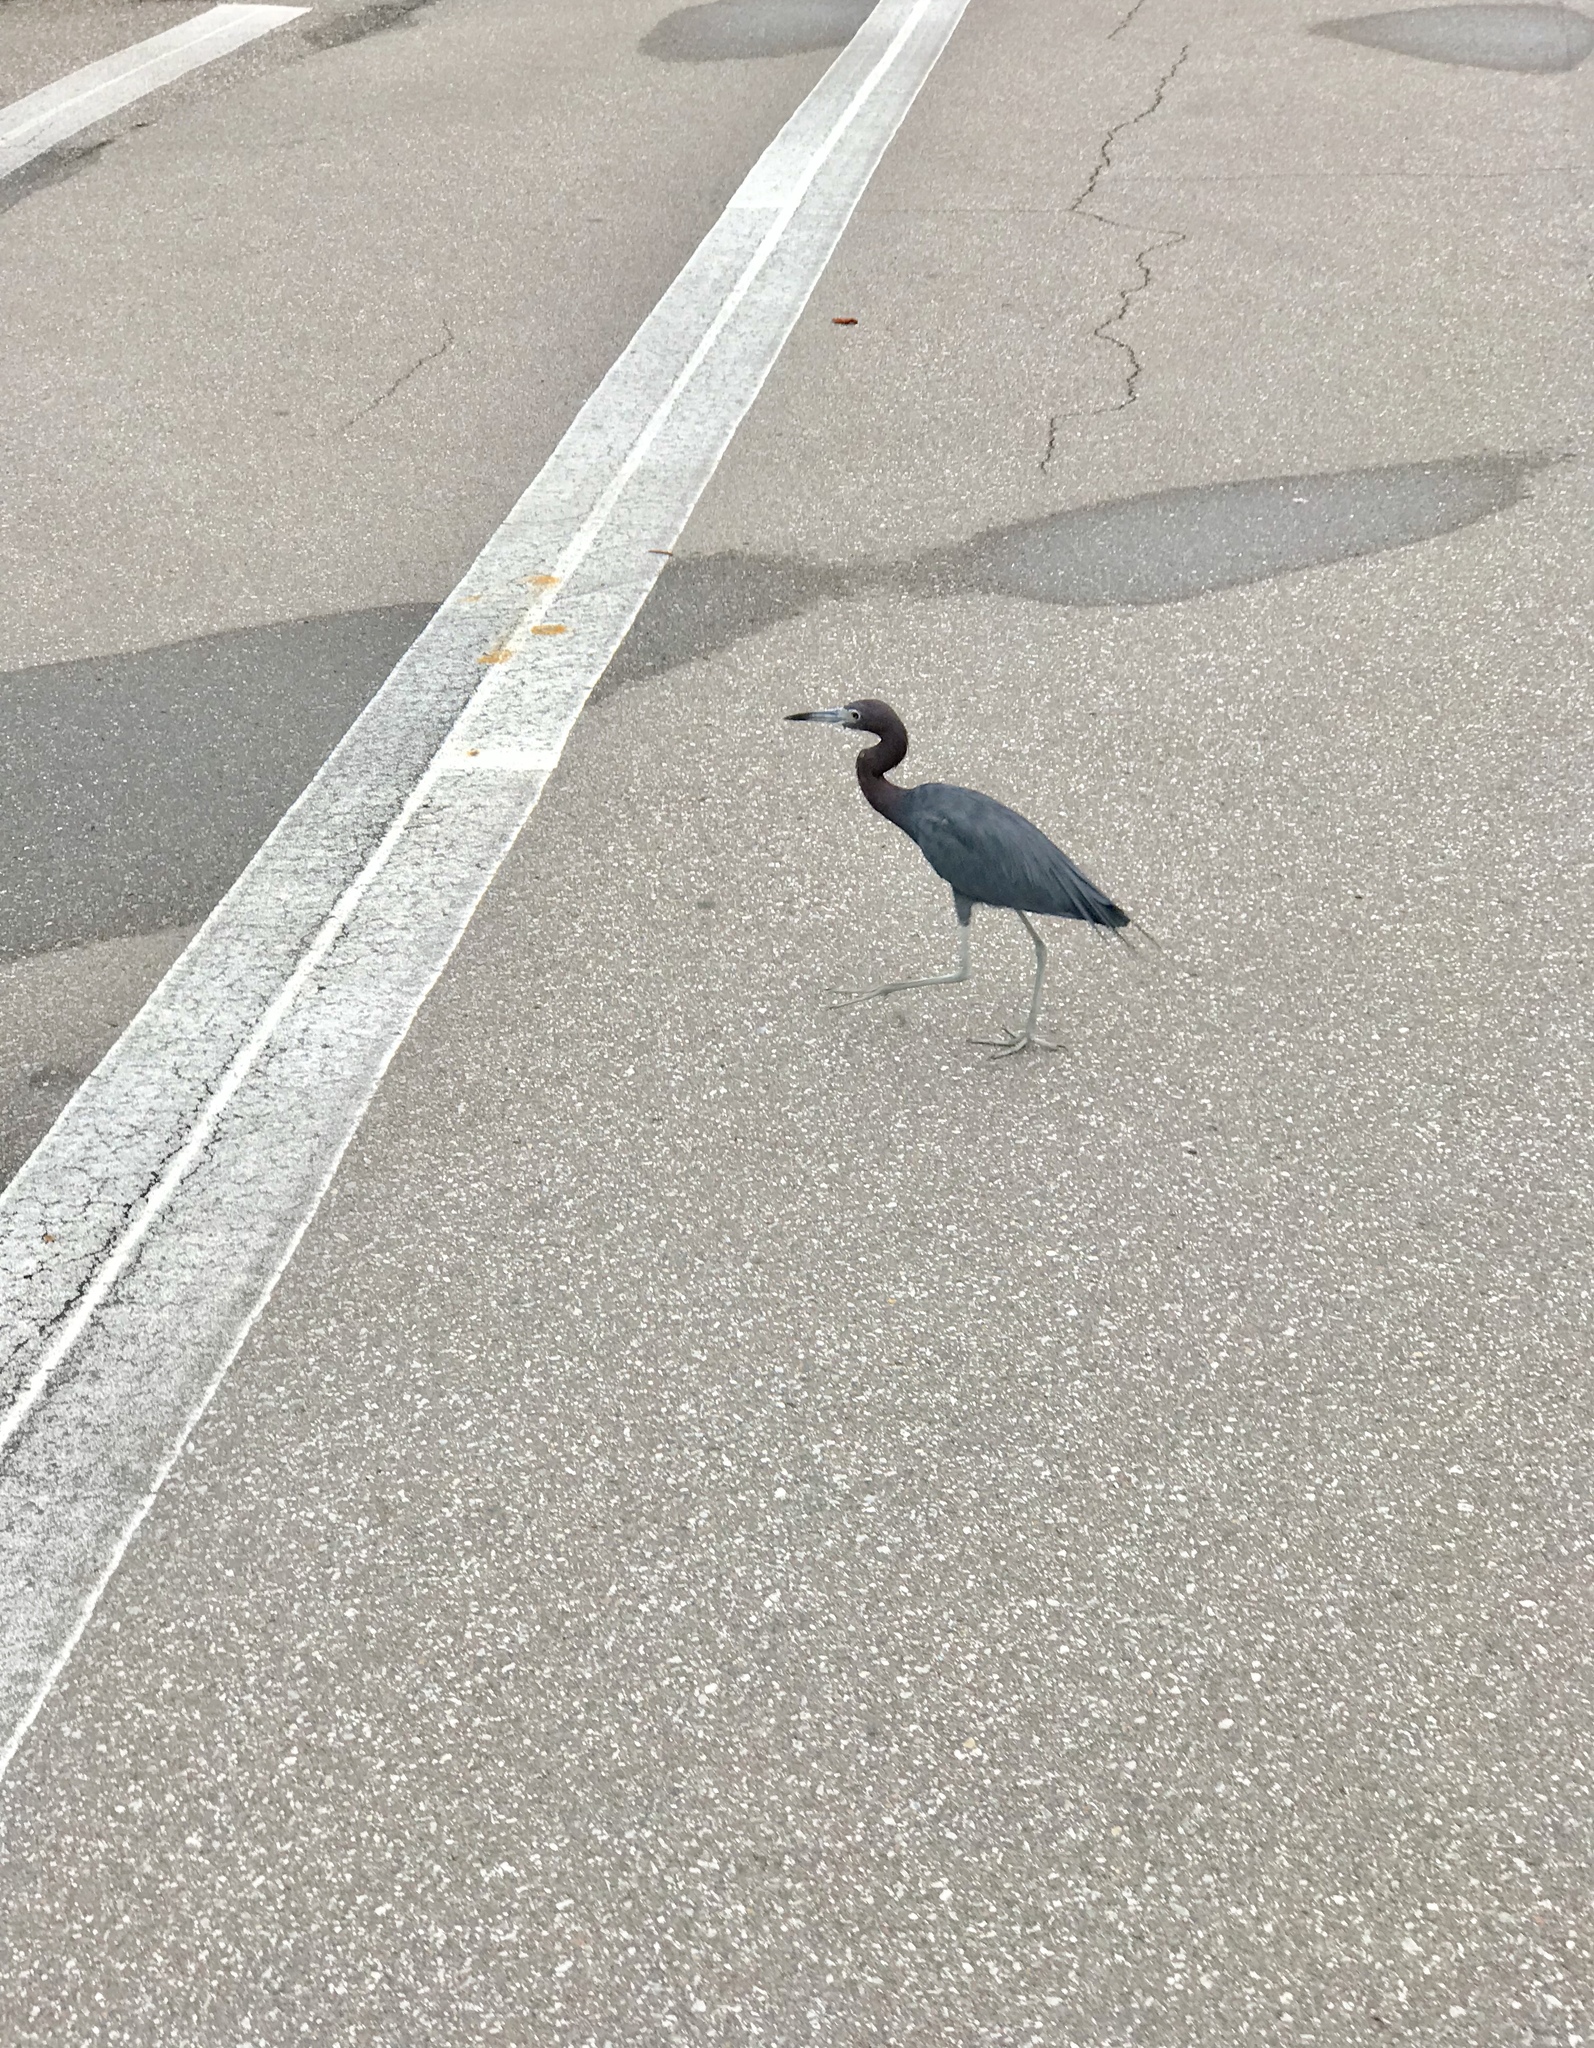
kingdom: Animalia
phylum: Chordata
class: Aves
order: Pelecaniformes
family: Ardeidae
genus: Egretta
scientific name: Egretta caerulea
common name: Little blue heron
